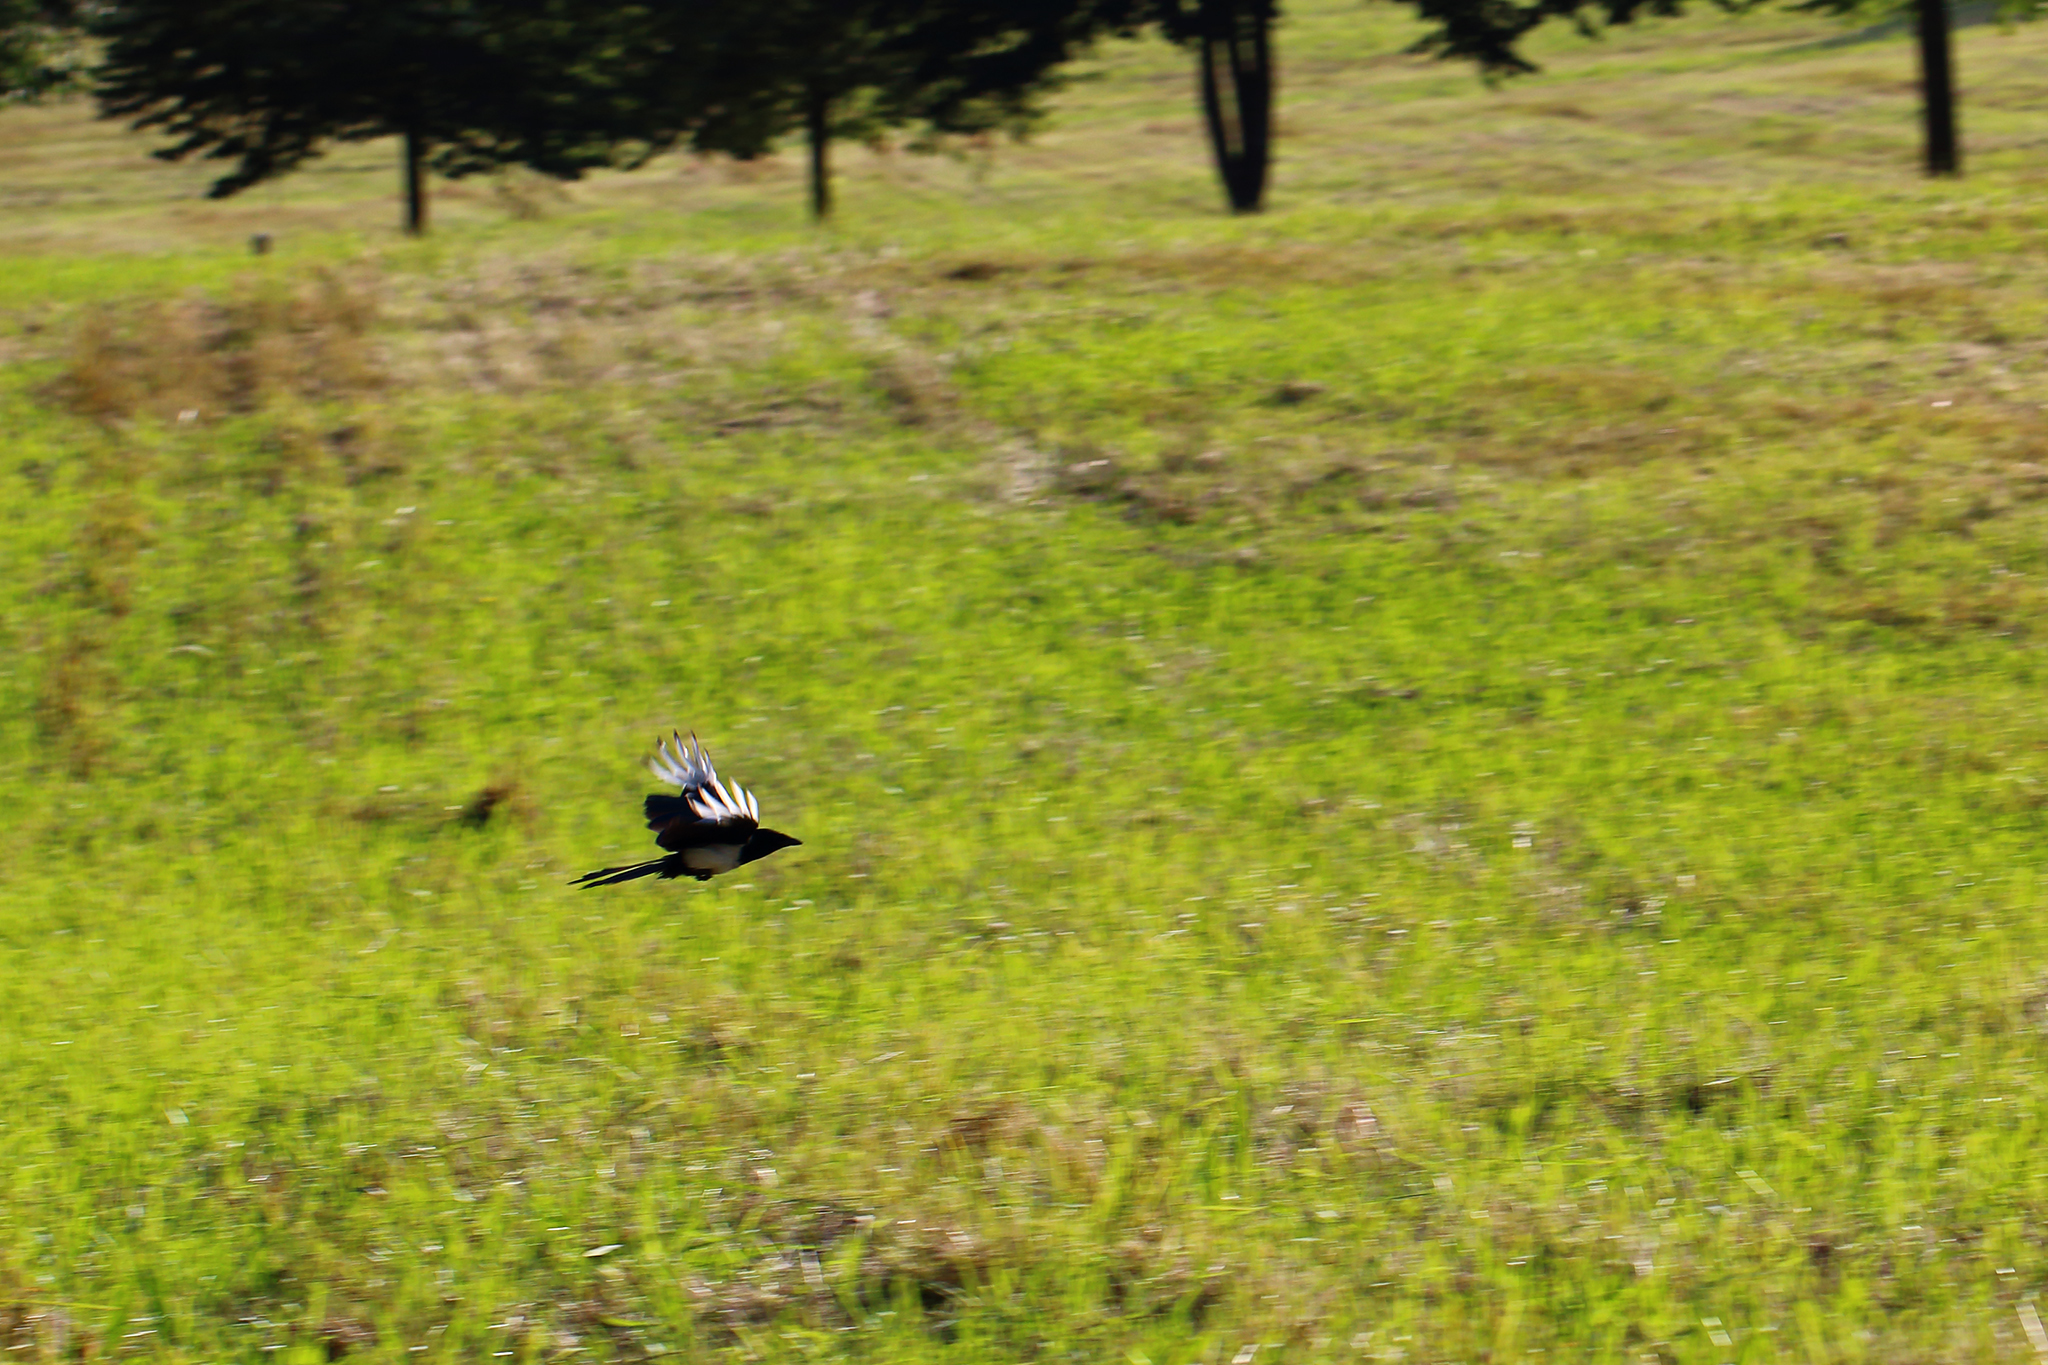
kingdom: Animalia
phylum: Chordata
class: Aves
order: Passeriformes
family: Corvidae
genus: Pica
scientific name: Pica pica
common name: Eurasian magpie
